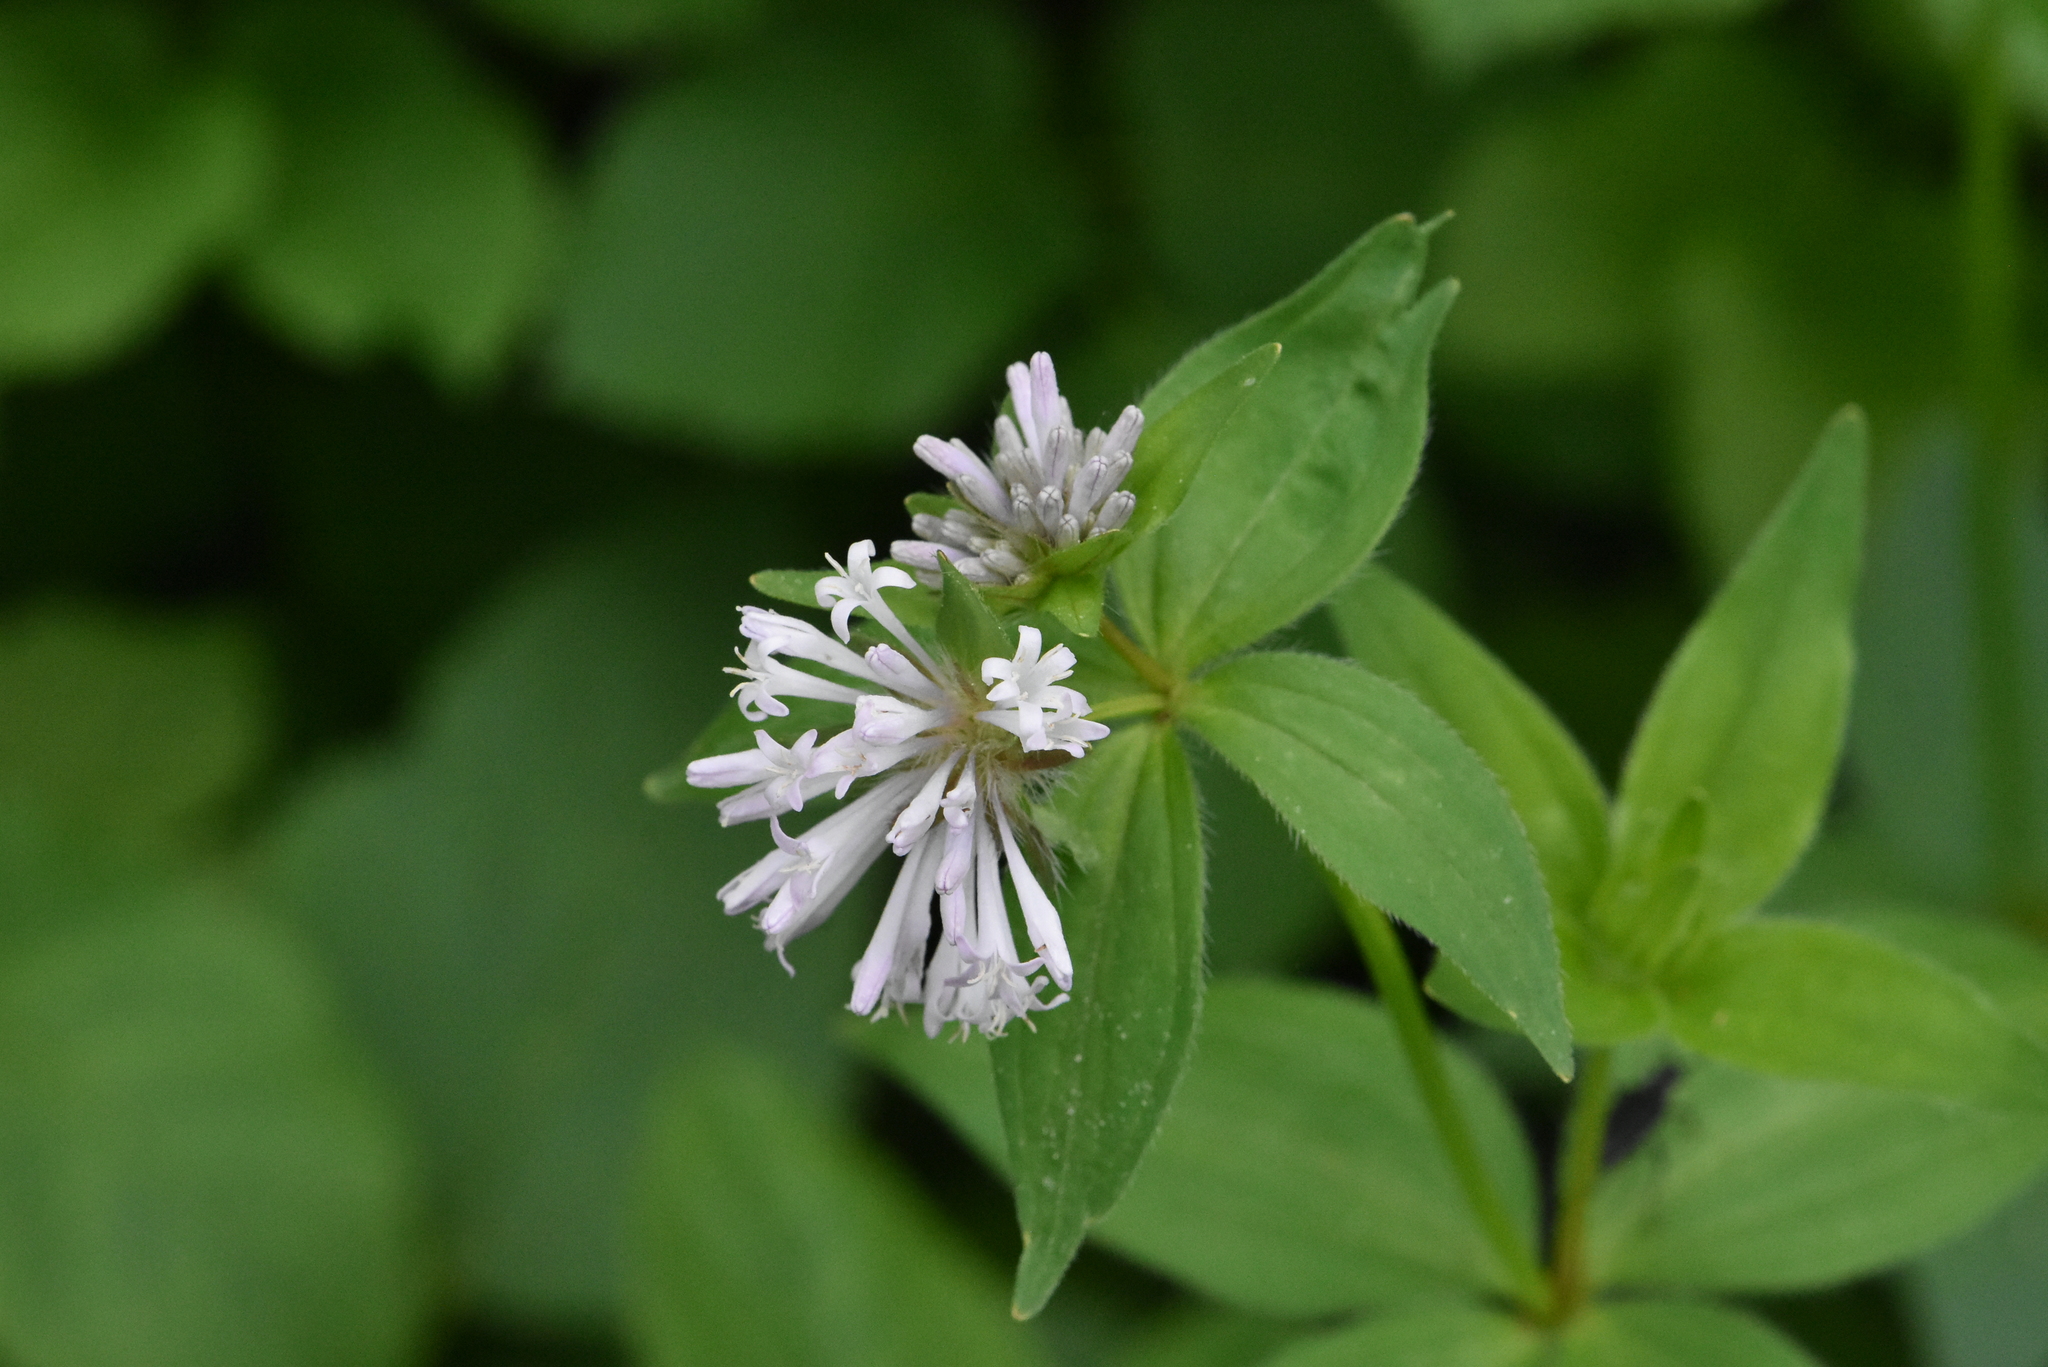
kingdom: Plantae
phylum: Tracheophyta
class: Magnoliopsida
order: Gentianales
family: Rubiaceae
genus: Asperula
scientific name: Asperula taurina
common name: Pink woodruff
